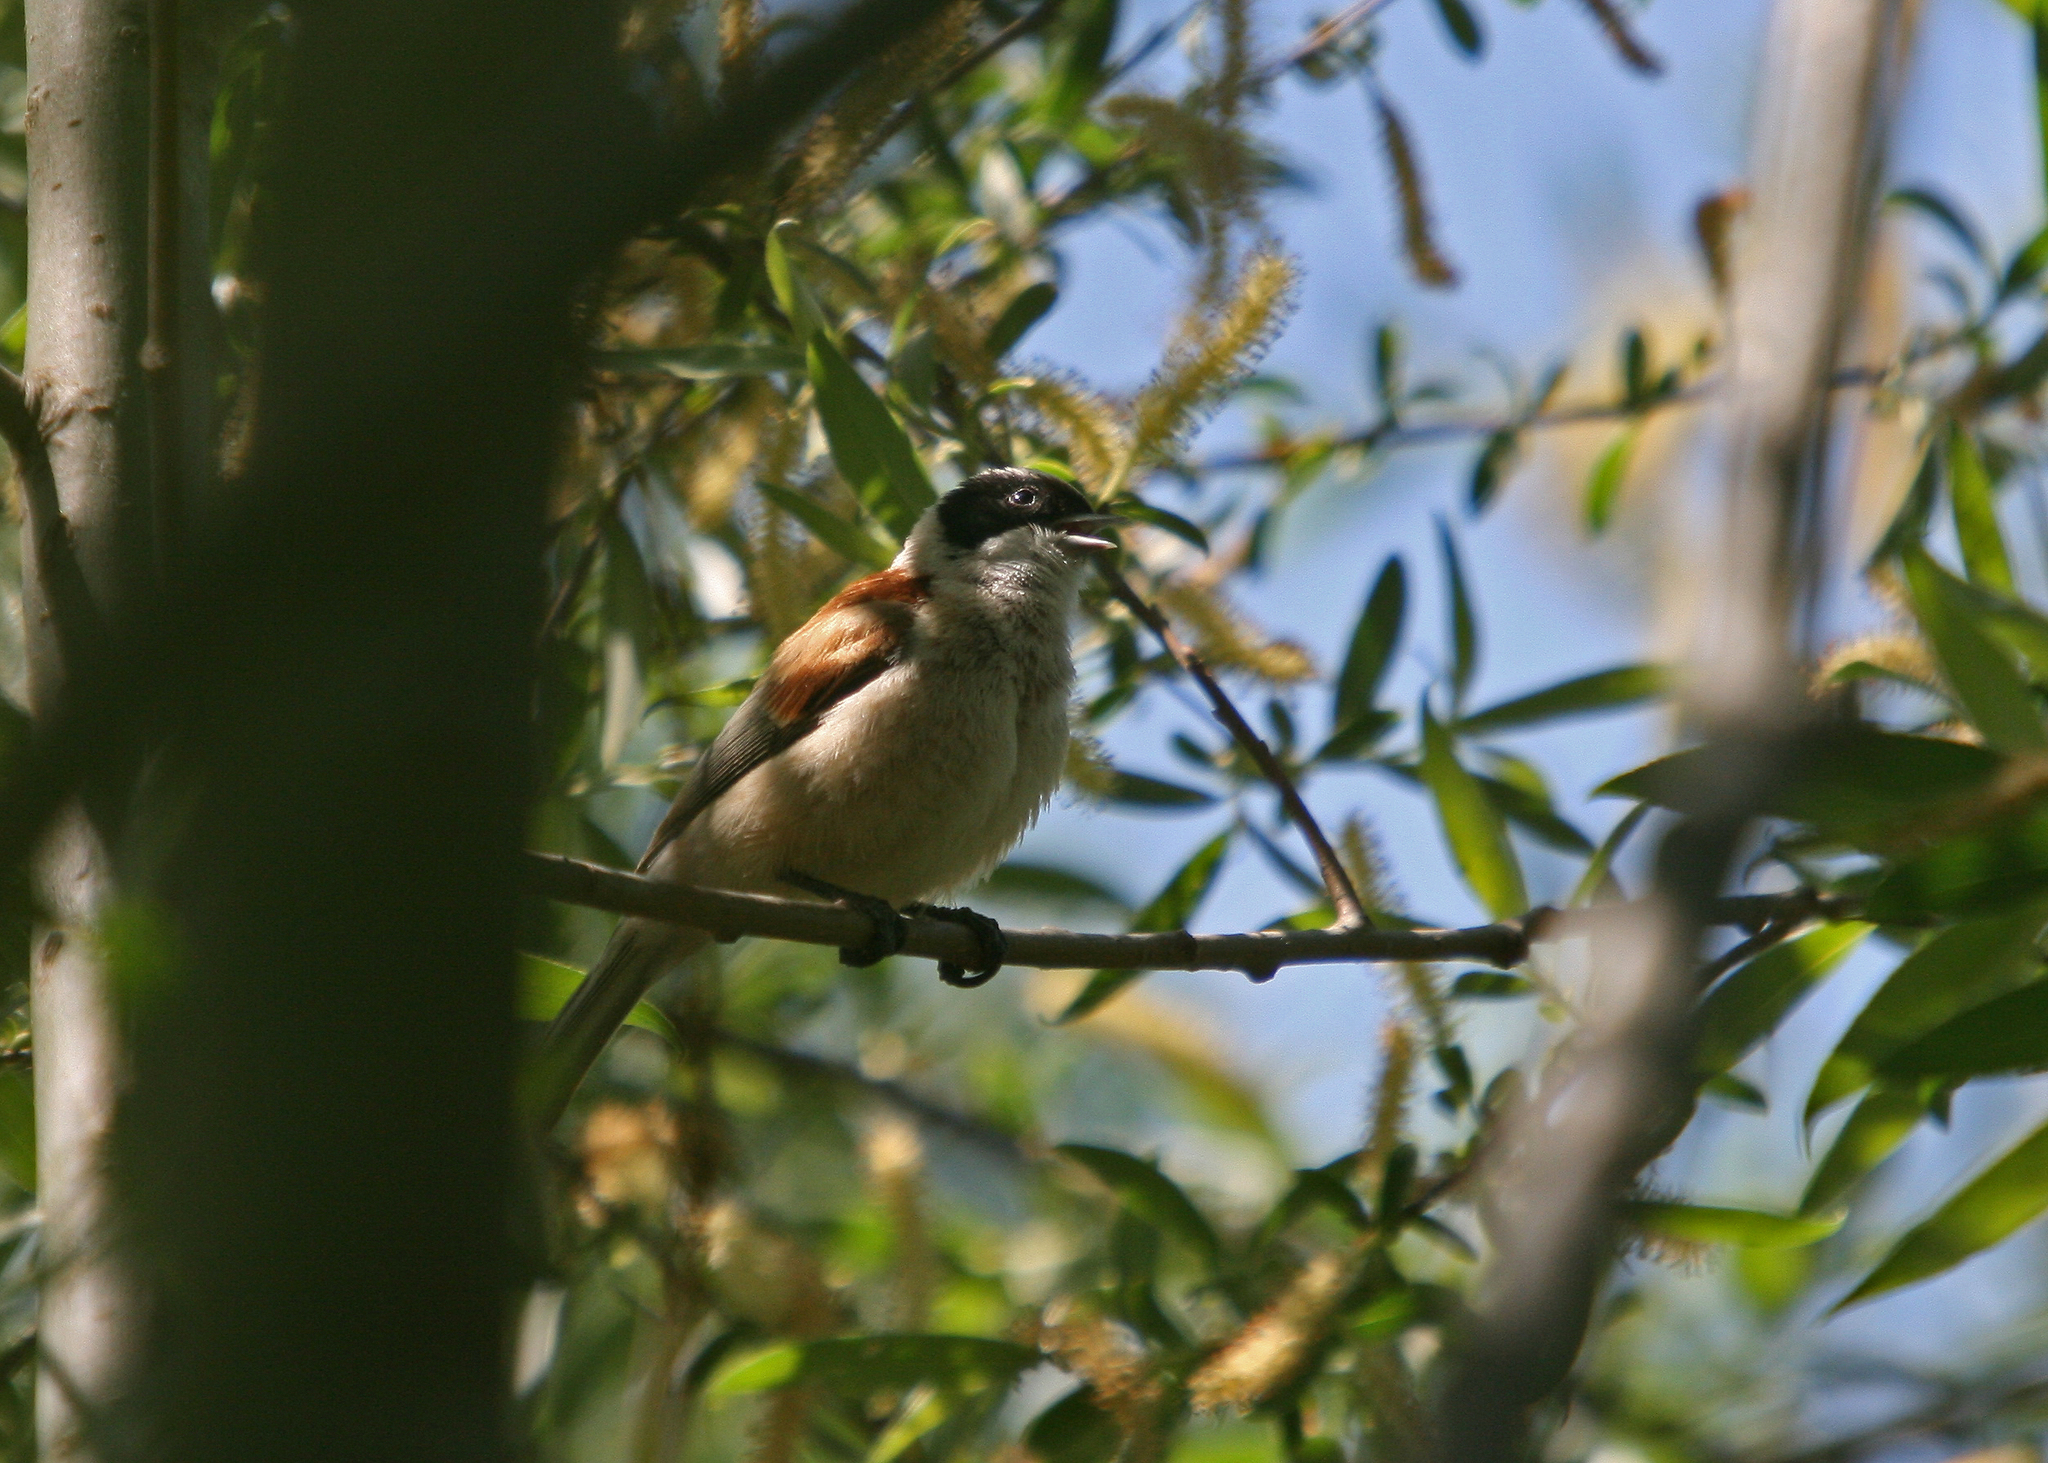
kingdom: Animalia
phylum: Chordata
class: Aves
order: Passeriformes
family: Remizidae
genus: Remiz
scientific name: Remiz pendulinus
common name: Eurasian penduline tit
